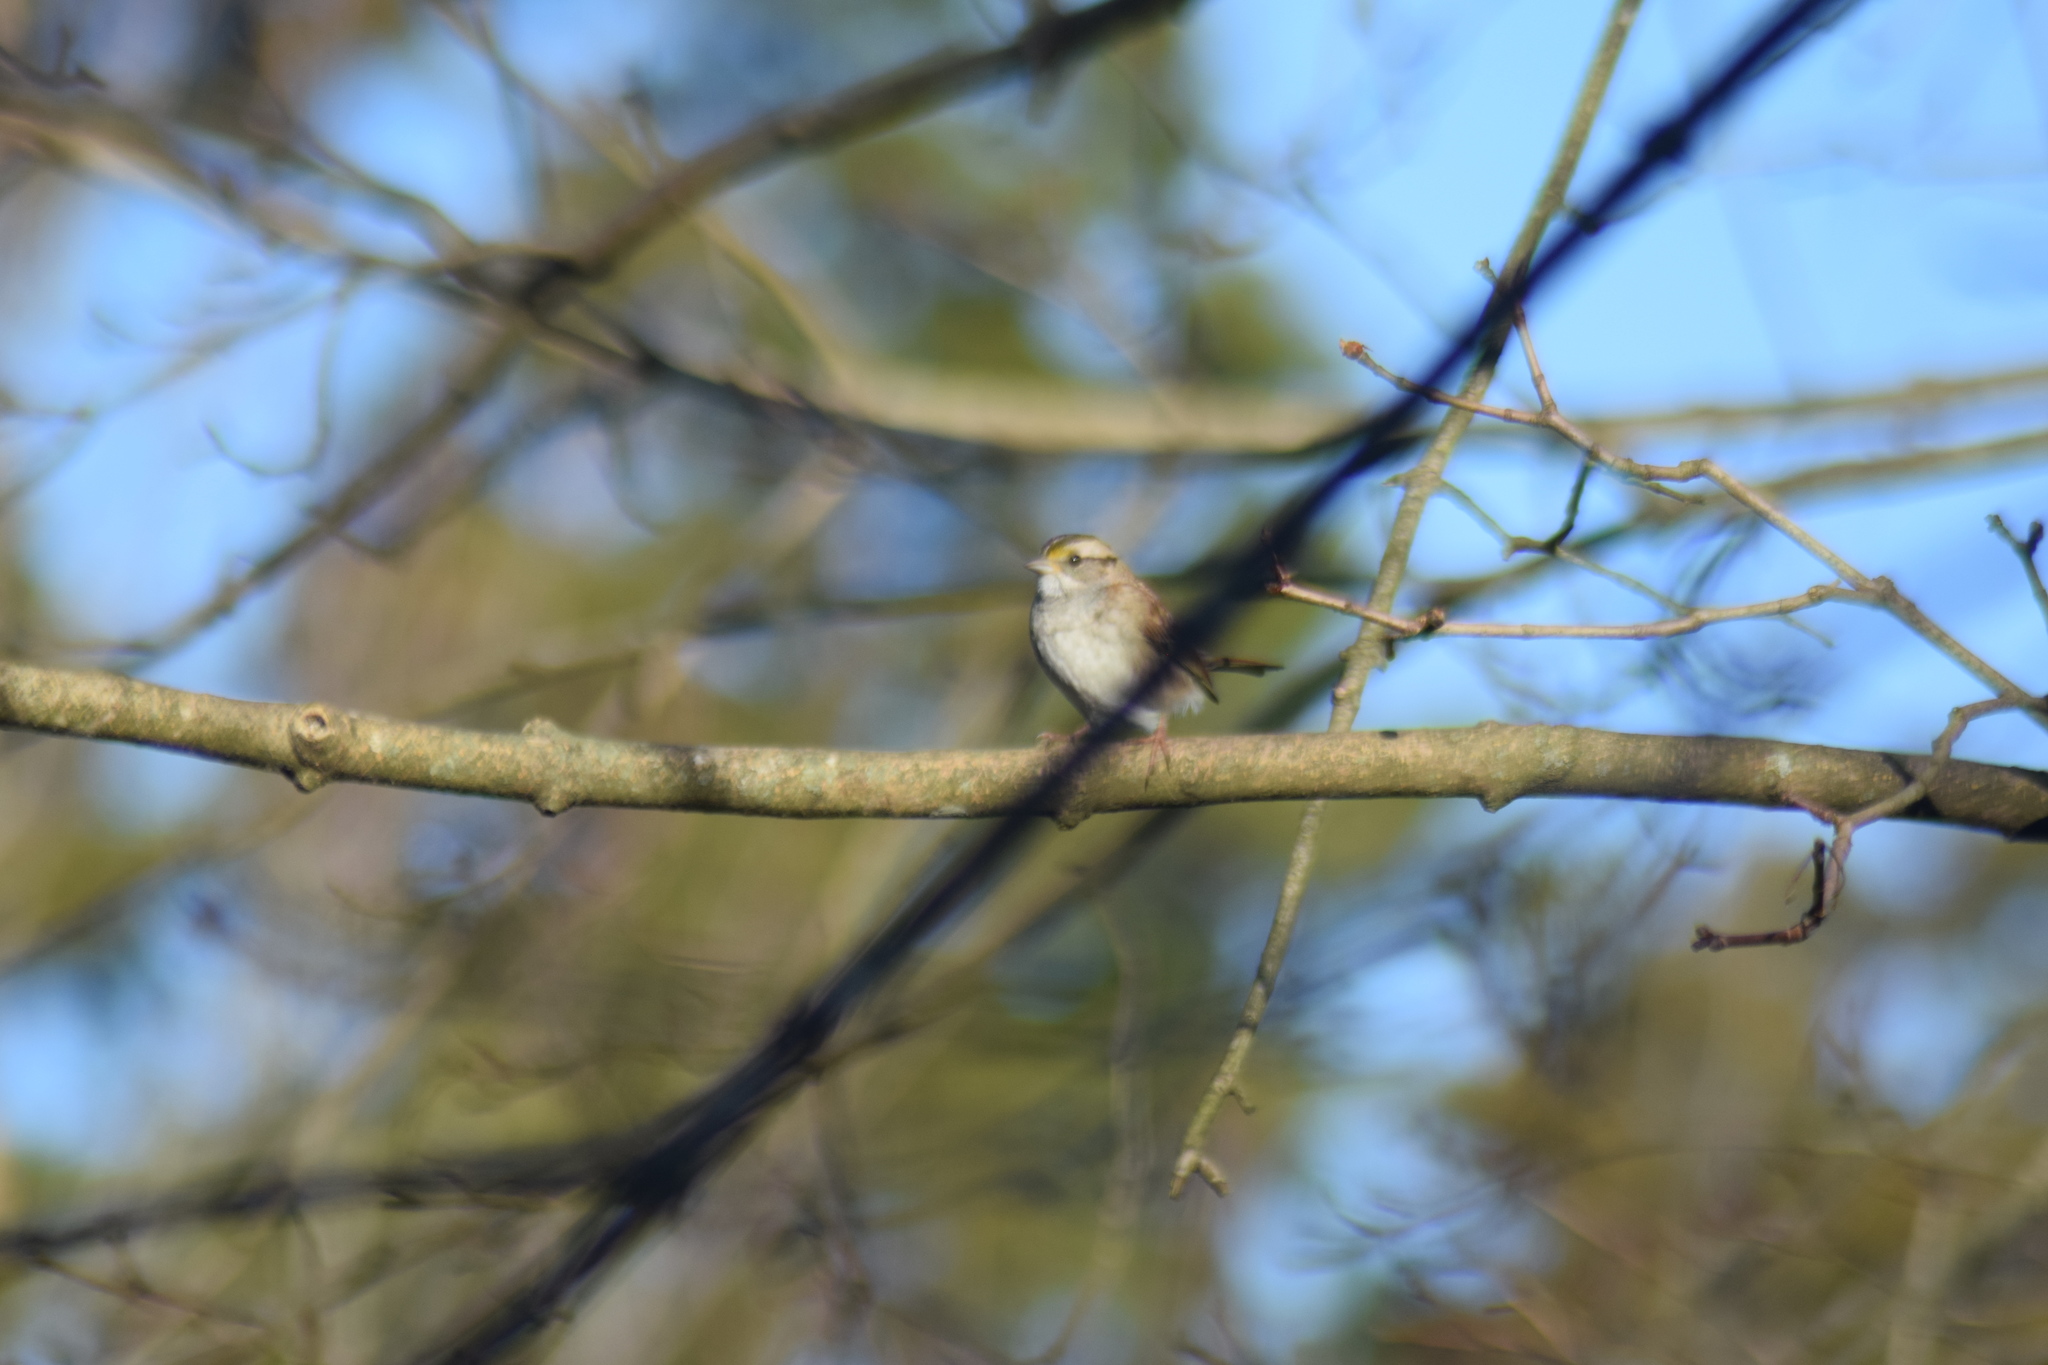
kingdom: Animalia
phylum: Chordata
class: Aves
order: Passeriformes
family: Passerellidae
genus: Zonotrichia
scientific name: Zonotrichia albicollis
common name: White-throated sparrow
